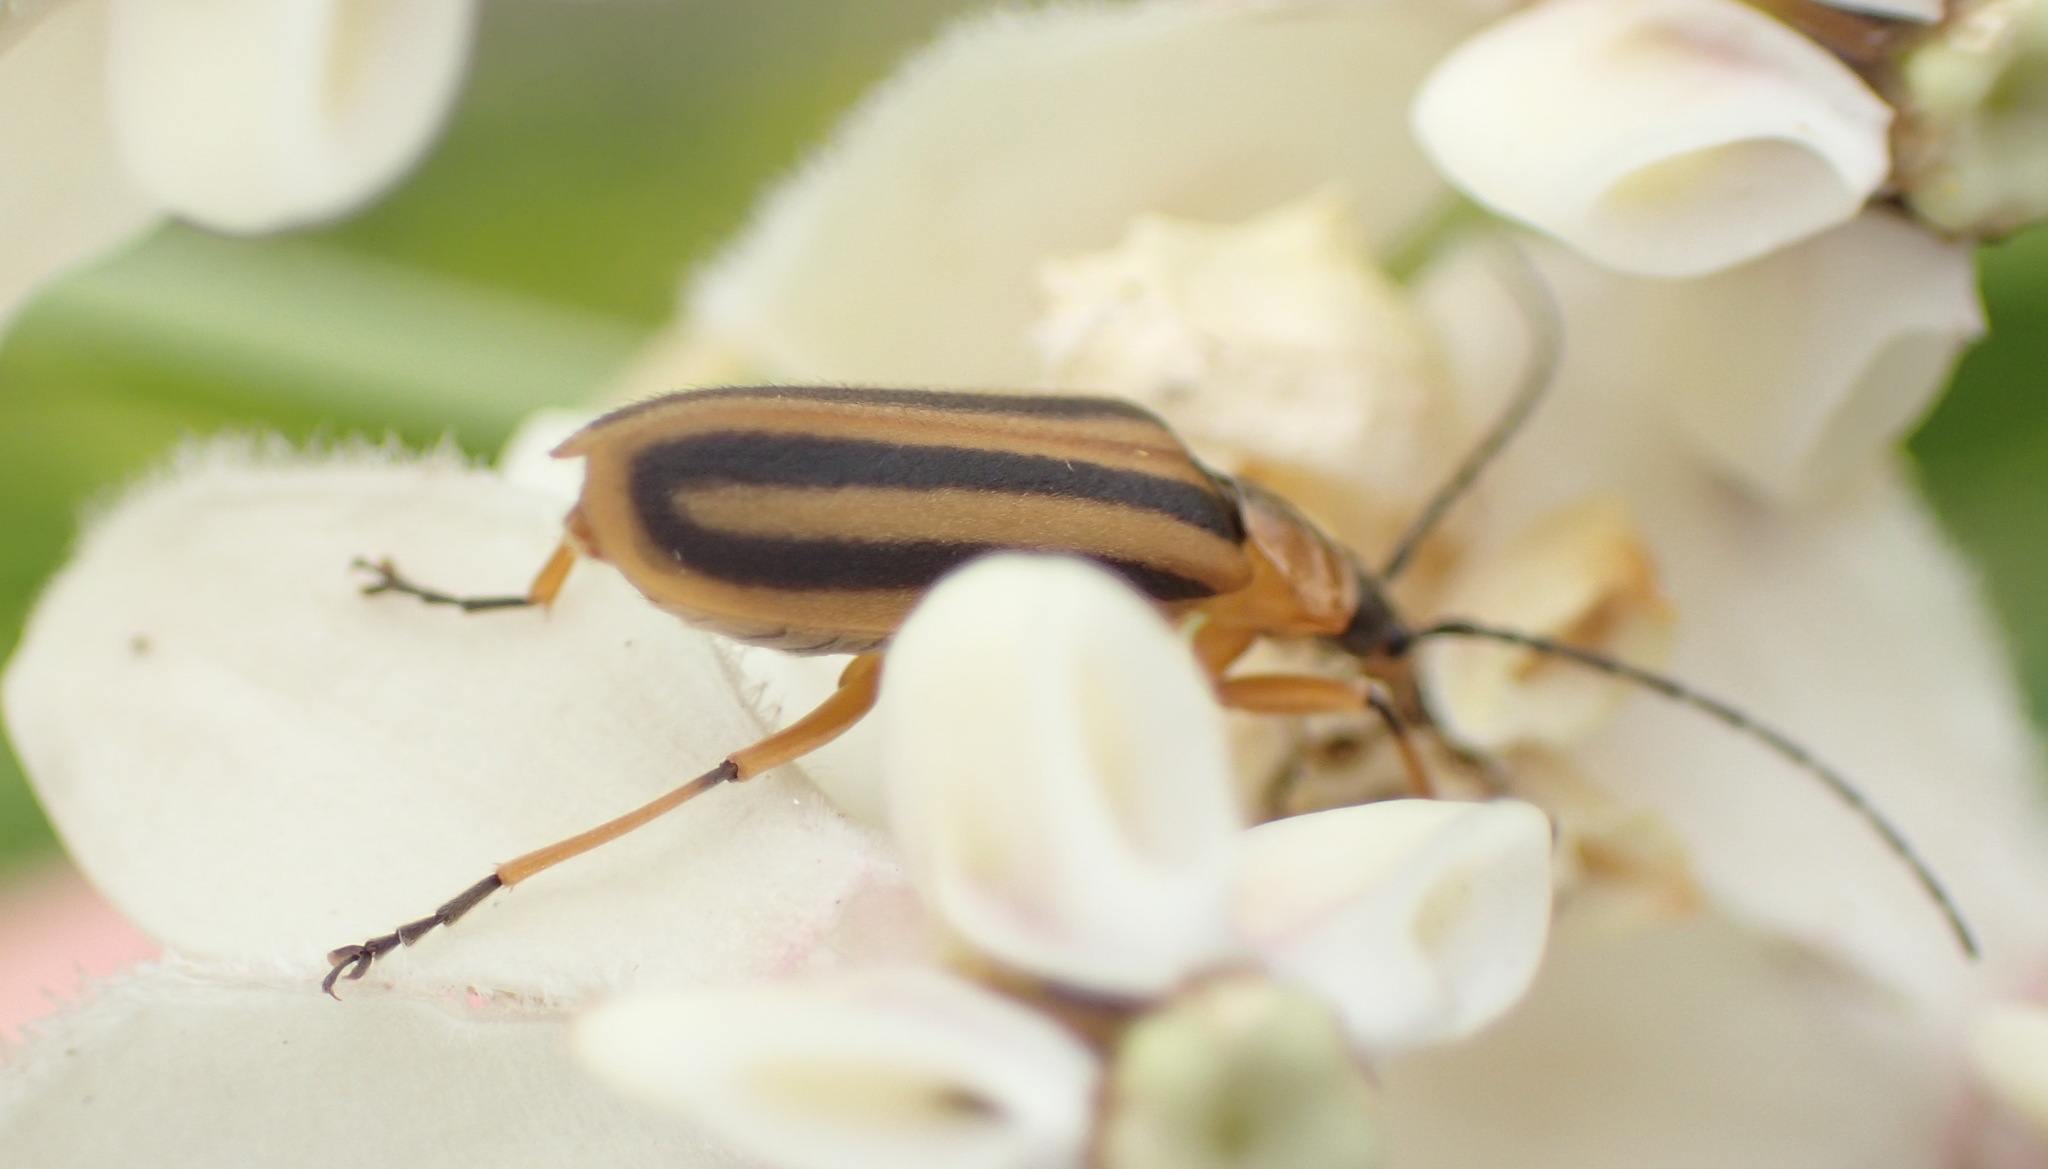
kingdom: Animalia
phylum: Arthropoda
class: Insecta
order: Coleoptera
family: Cantharidae
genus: Afronycha
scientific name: Afronycha
